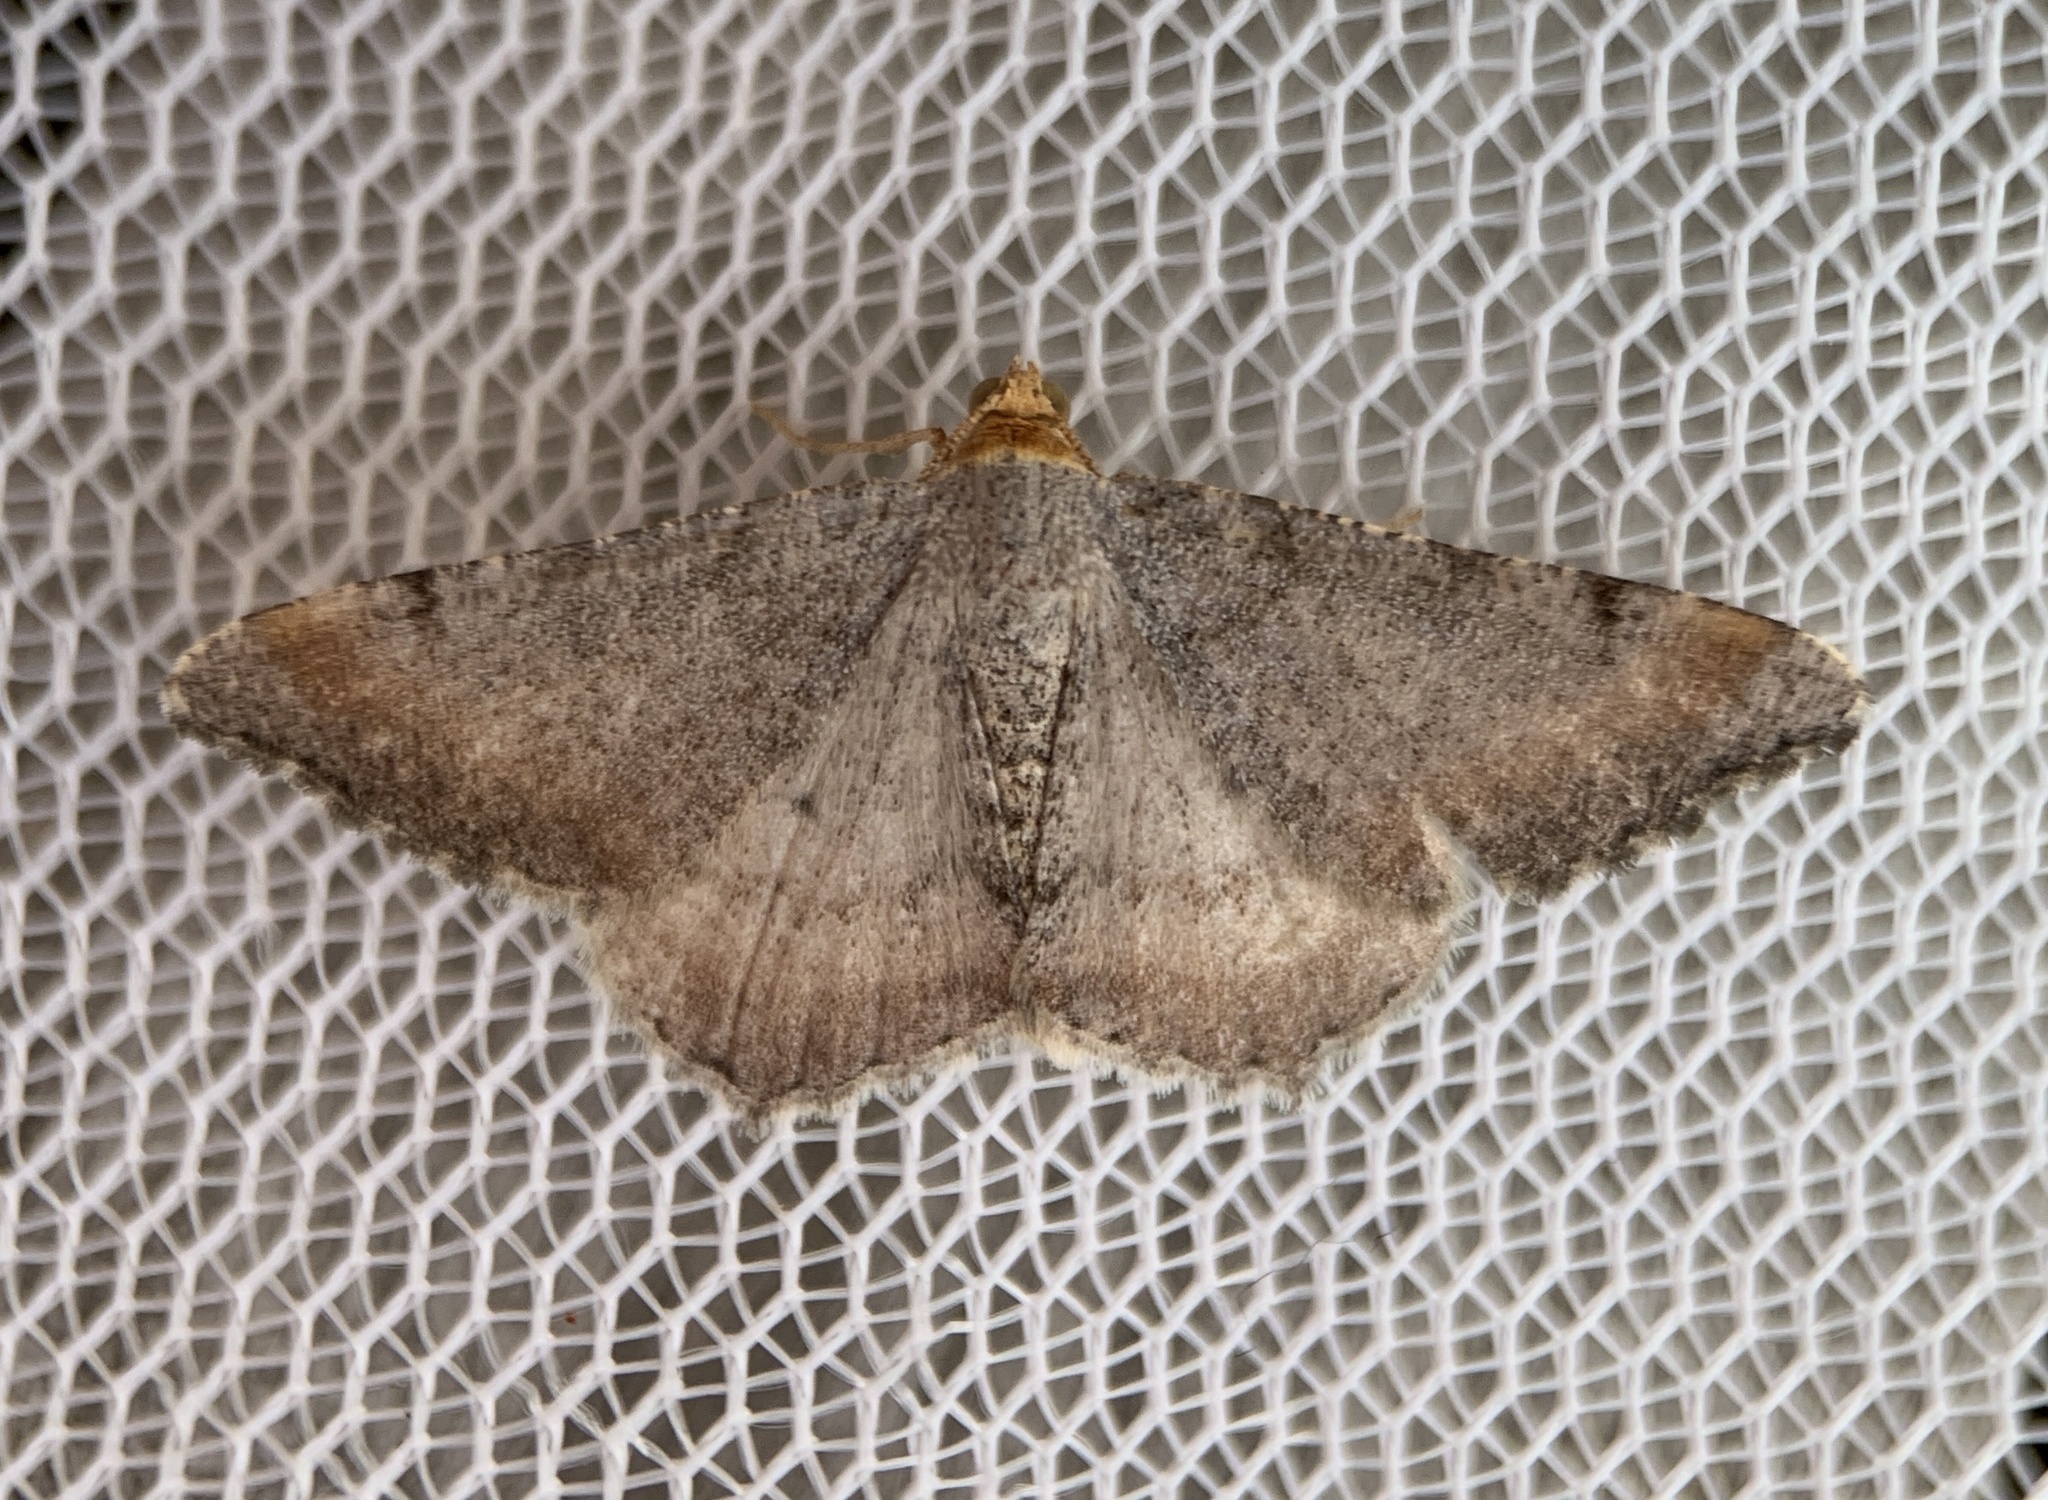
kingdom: Animalia
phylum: Arthropoda
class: Insecta
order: Lepidoptera
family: Geometridae
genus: Macaria
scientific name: Macaria minorata
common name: Minor angle moth
